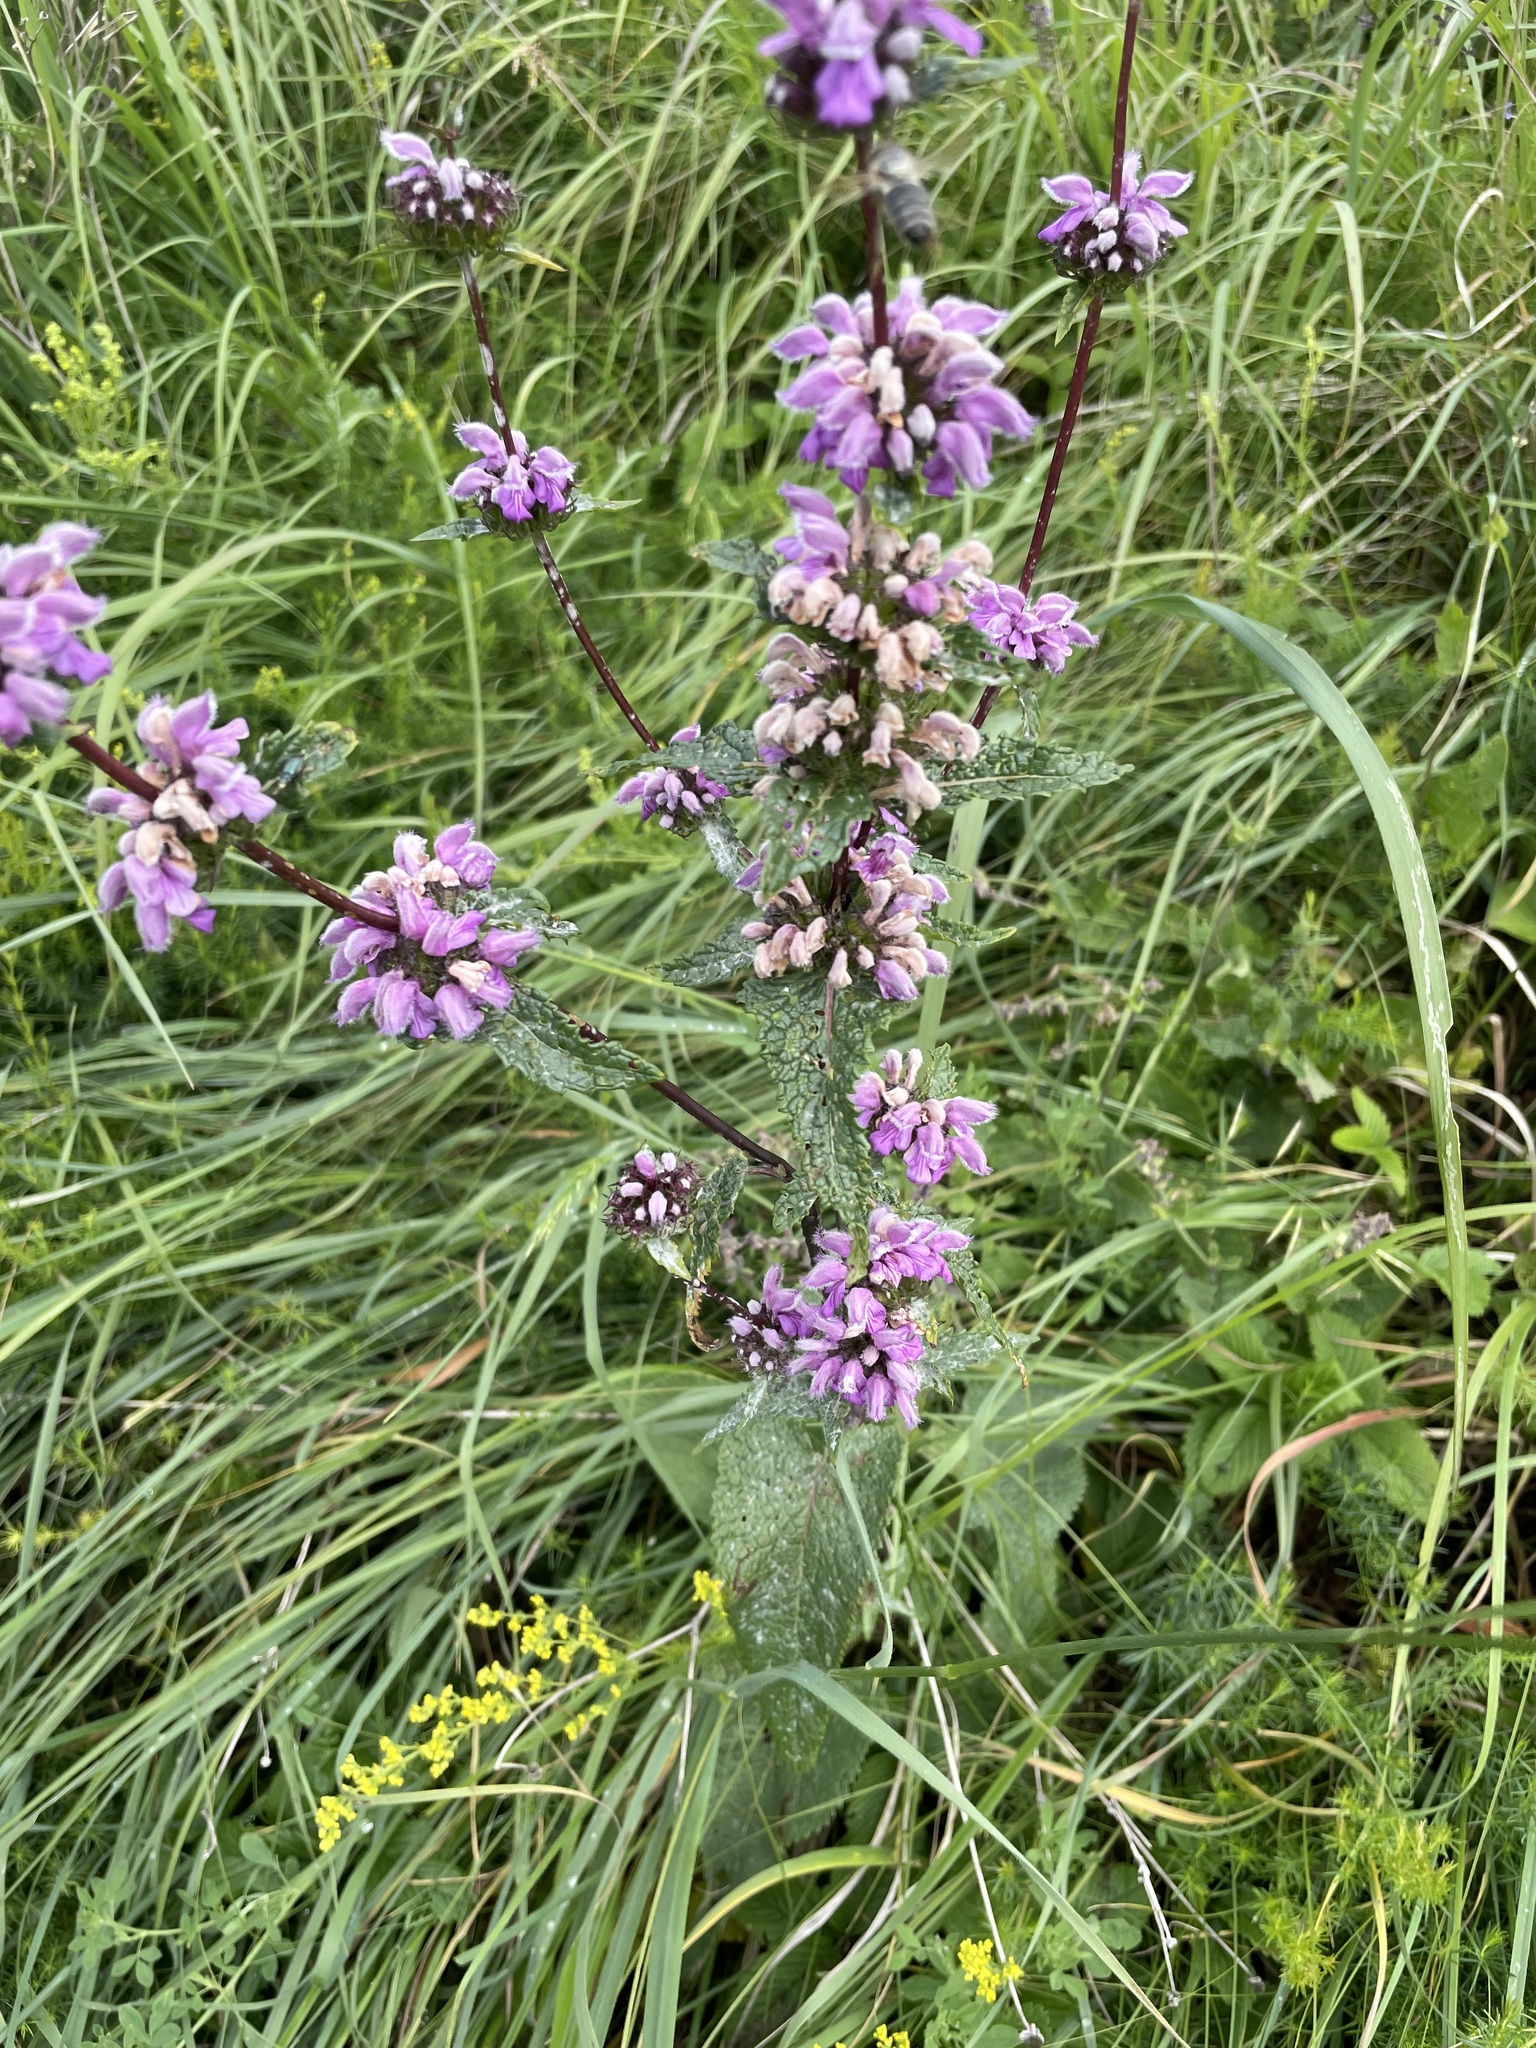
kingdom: Plantae
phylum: Tracheophyta
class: Magnoliopsida
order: Lamiales
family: Lamiaceae
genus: Phlomoides
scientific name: Phlomoides tuberosa
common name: Tuberous jerusalem sage
